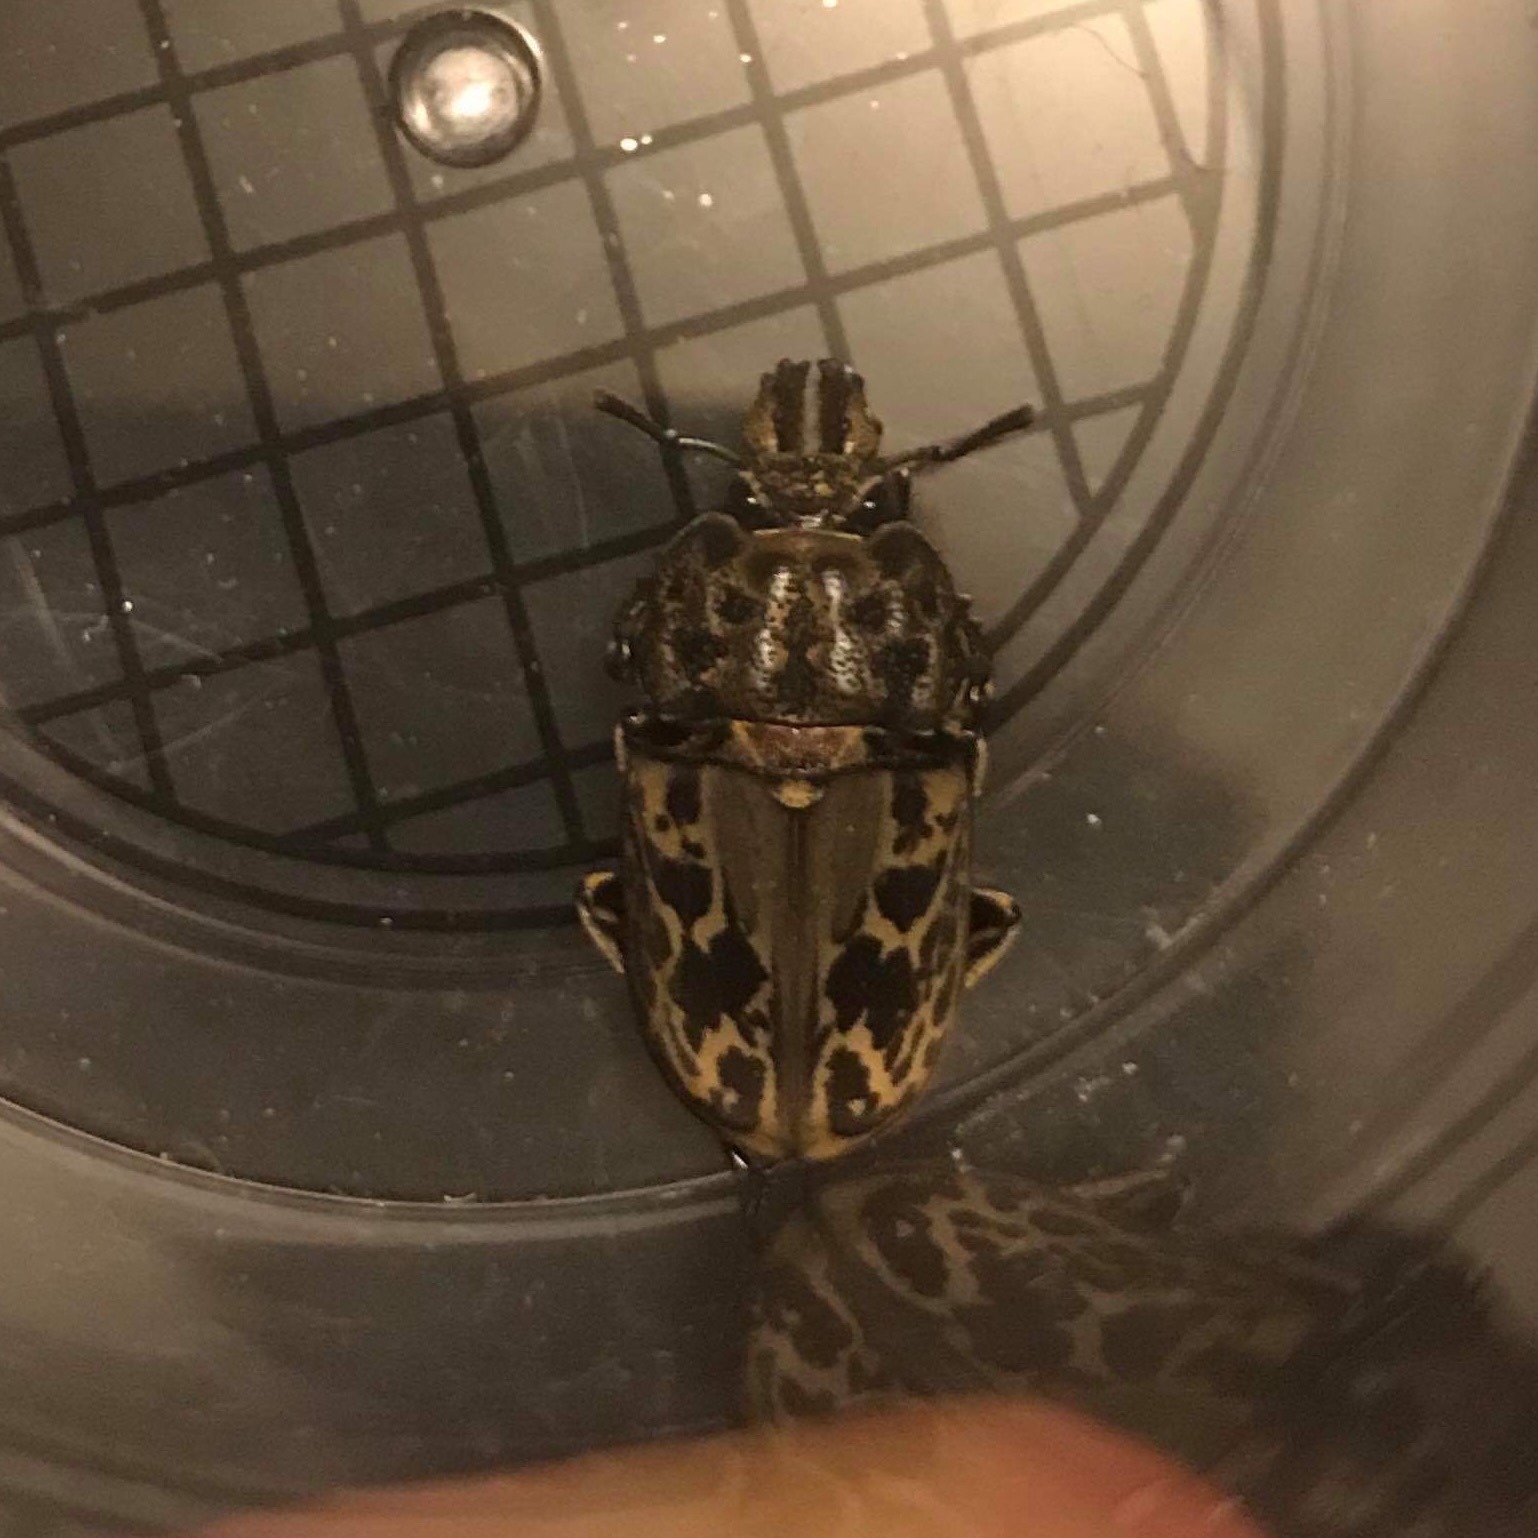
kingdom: Animalia
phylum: Arthropoda
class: Insecta
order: Coleoptera
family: Lucanidae
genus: Ryssonotus
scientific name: Ryssonotus nebulosus
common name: Brown stag beetle
